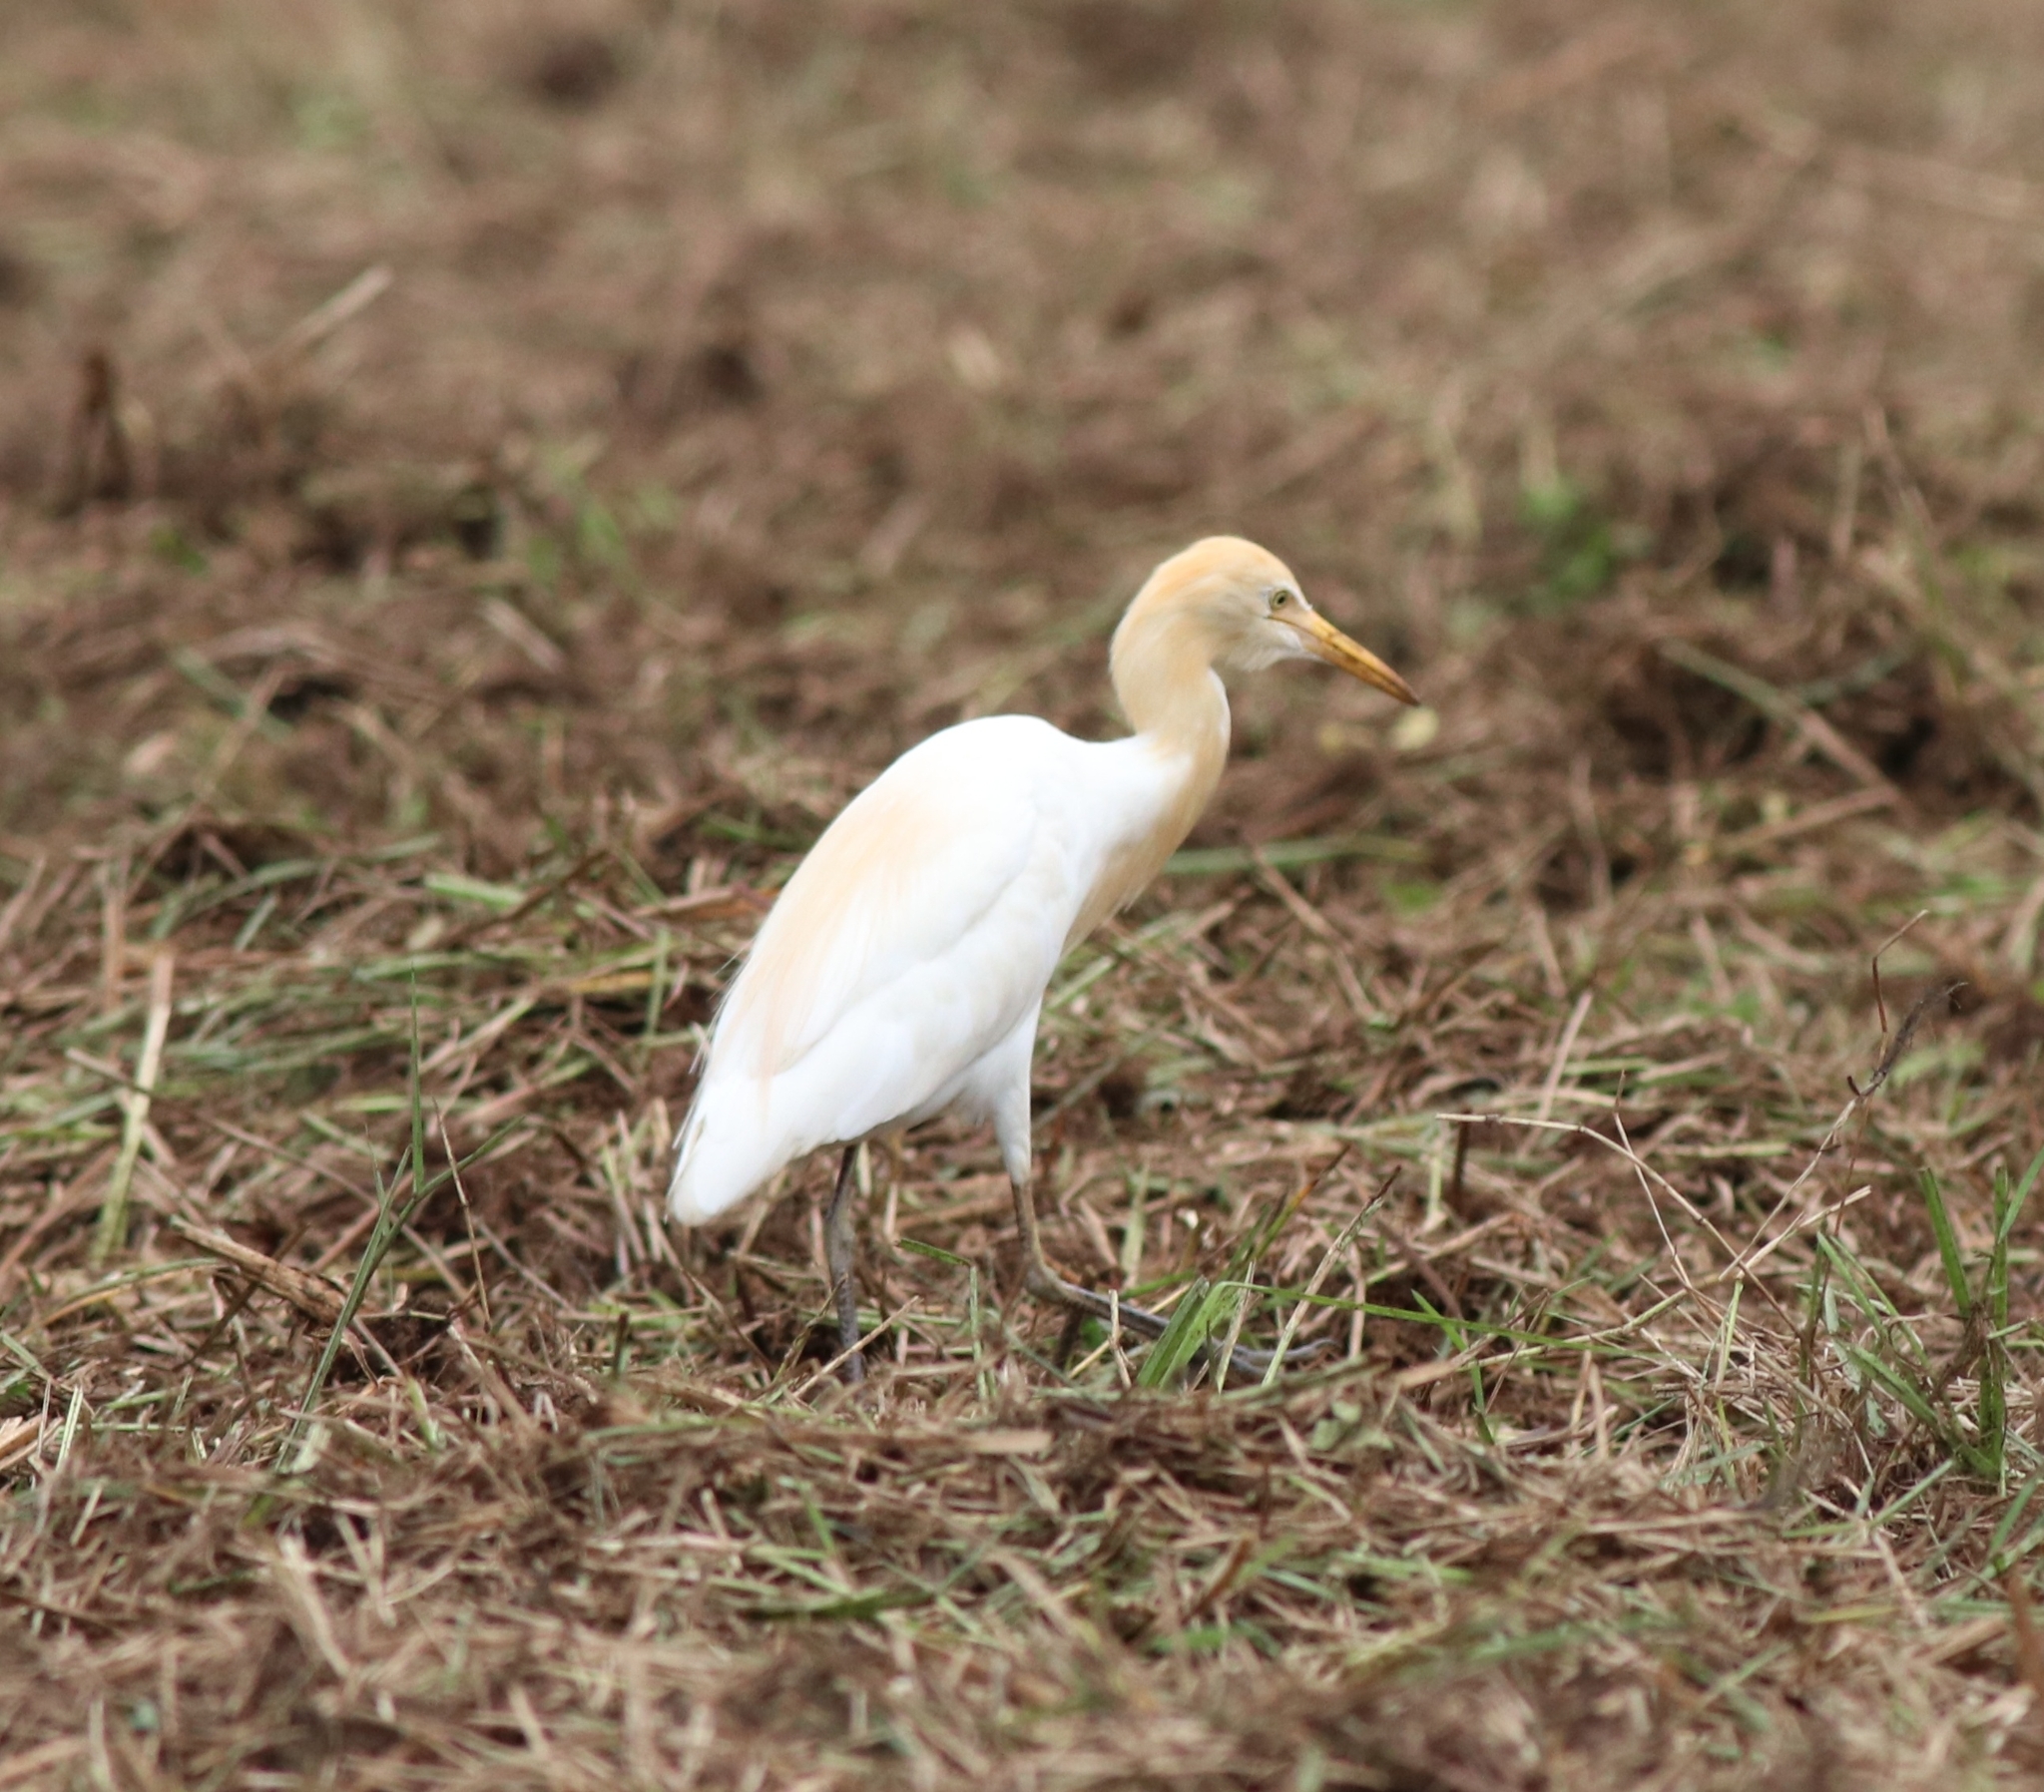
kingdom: Animalia
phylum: Chordata
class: Aves
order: Pelecaniformes
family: Ardeidae
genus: Bubulcus
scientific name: Bubulcus coromandus
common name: Eastern cattle egret
